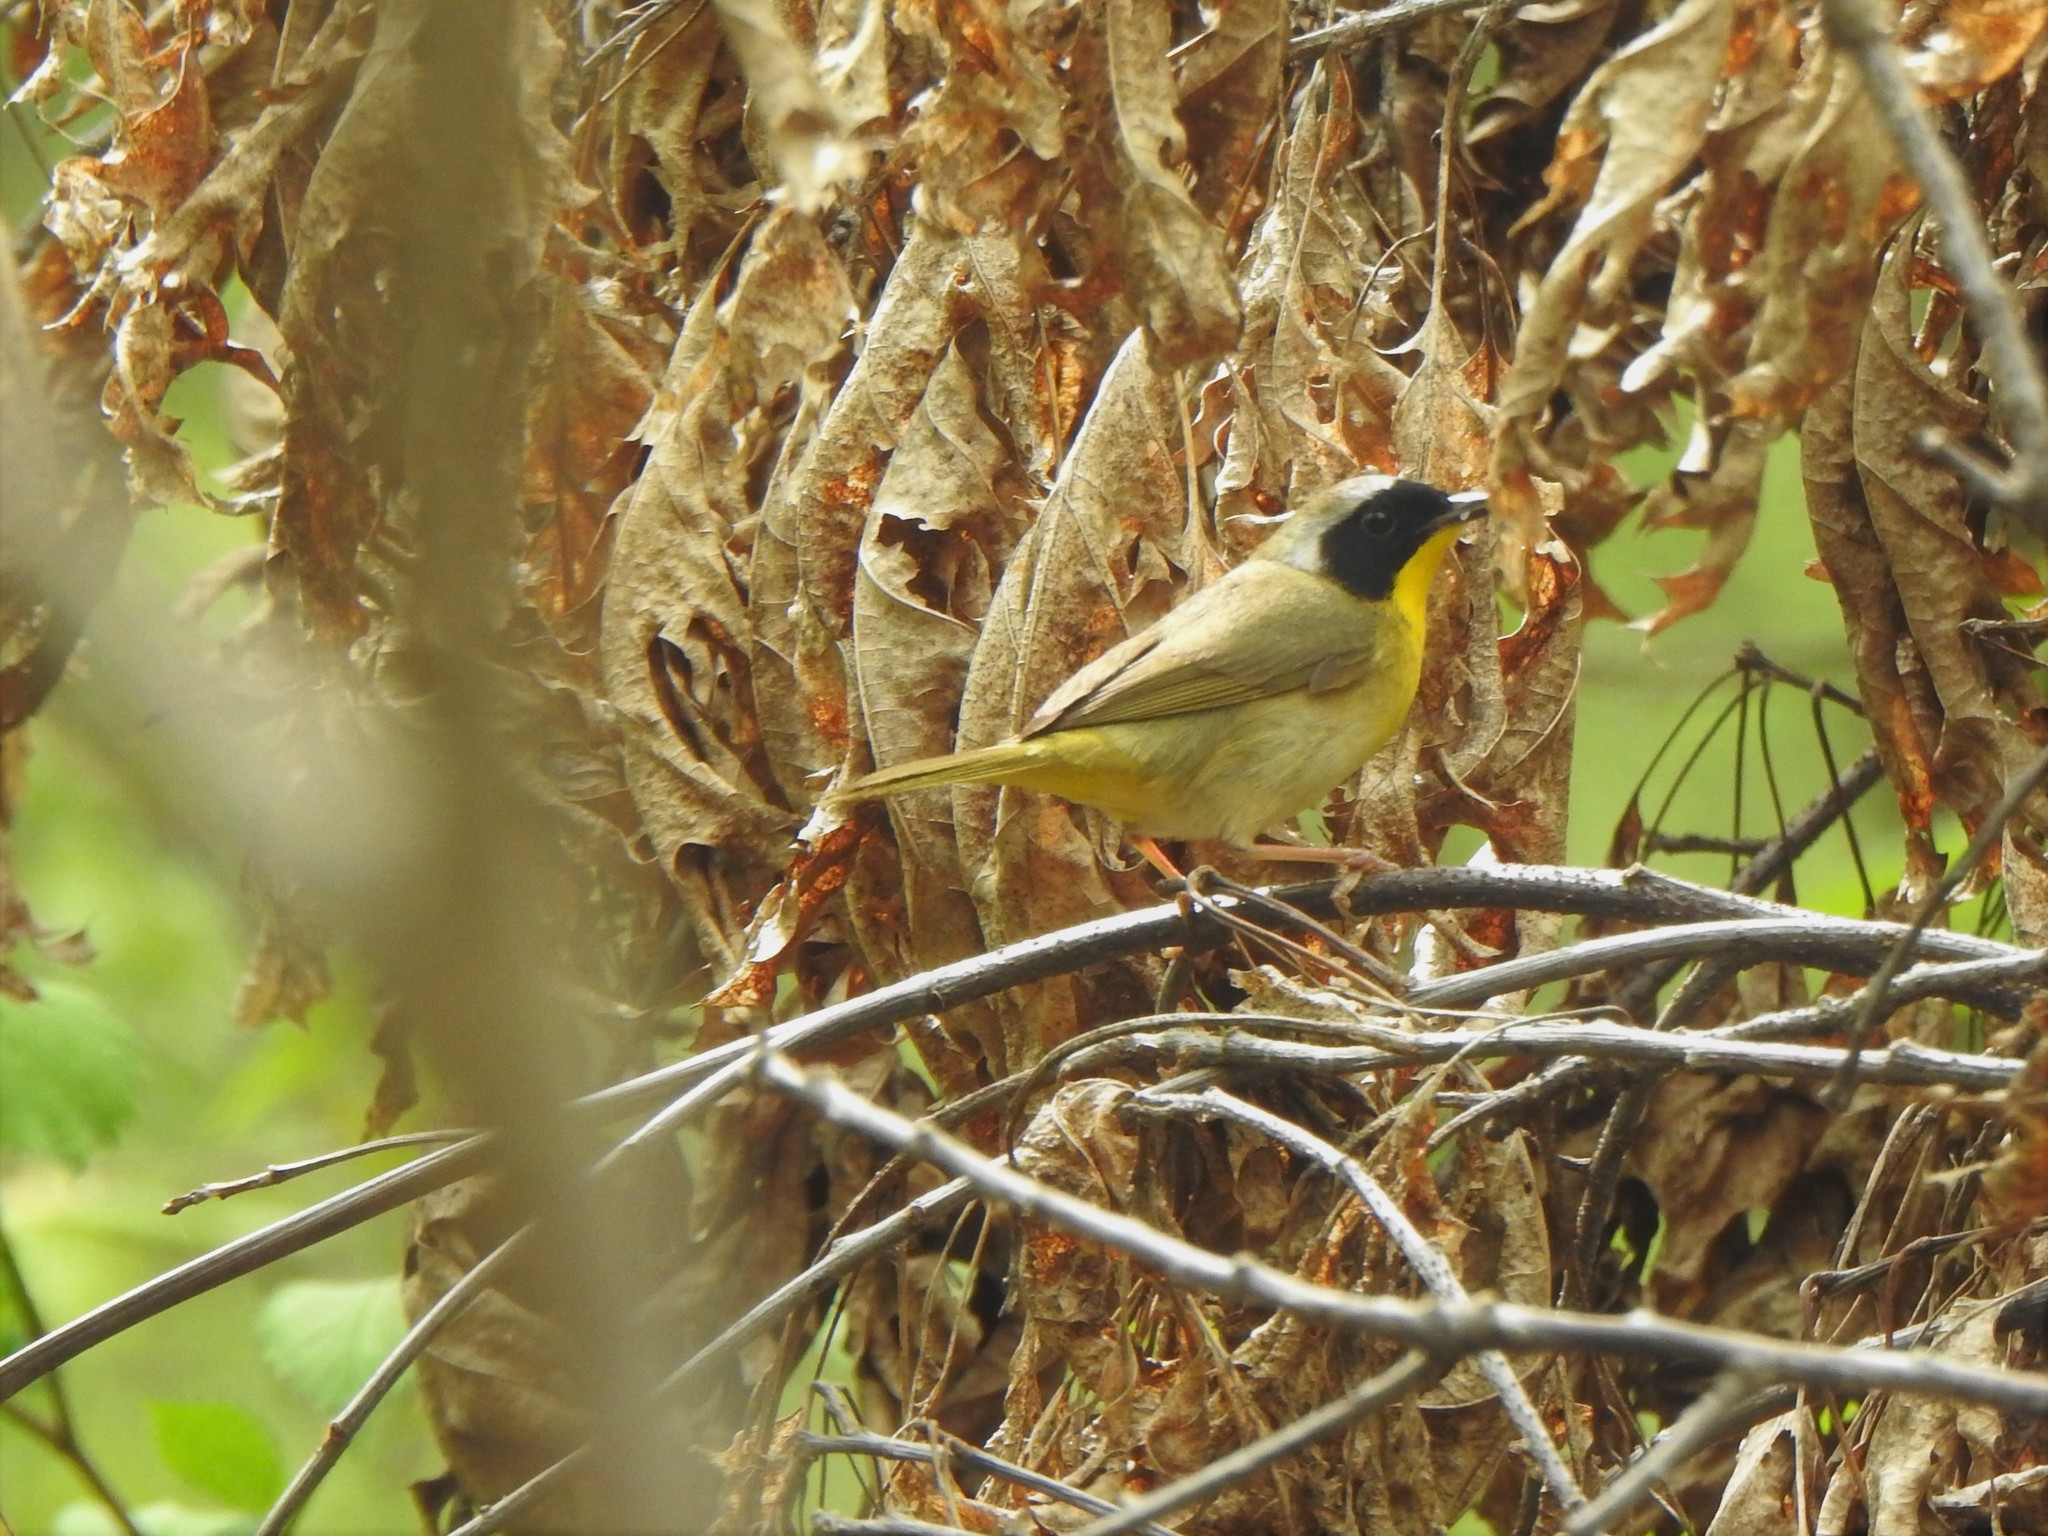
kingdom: Animalia
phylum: Chordata
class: Aves
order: Passeriformes
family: Parulidae
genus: Geothlypis
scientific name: Geothlypis trichas
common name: Common yellowthroat
